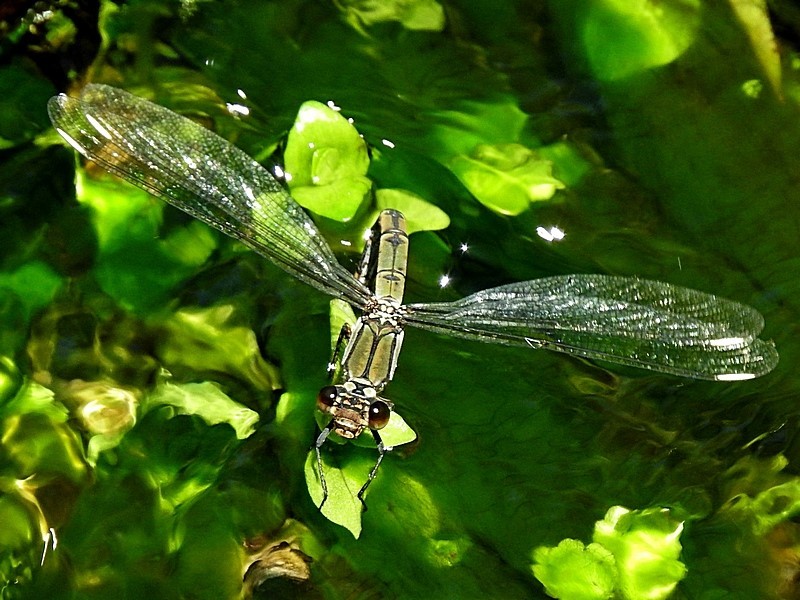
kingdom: Animalia
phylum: Arthropoda
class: Insecta
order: Odonata
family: Lestoideidae
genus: Diphlebia
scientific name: Diphlebia nymphoides
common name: Arrowhead rockmaster
